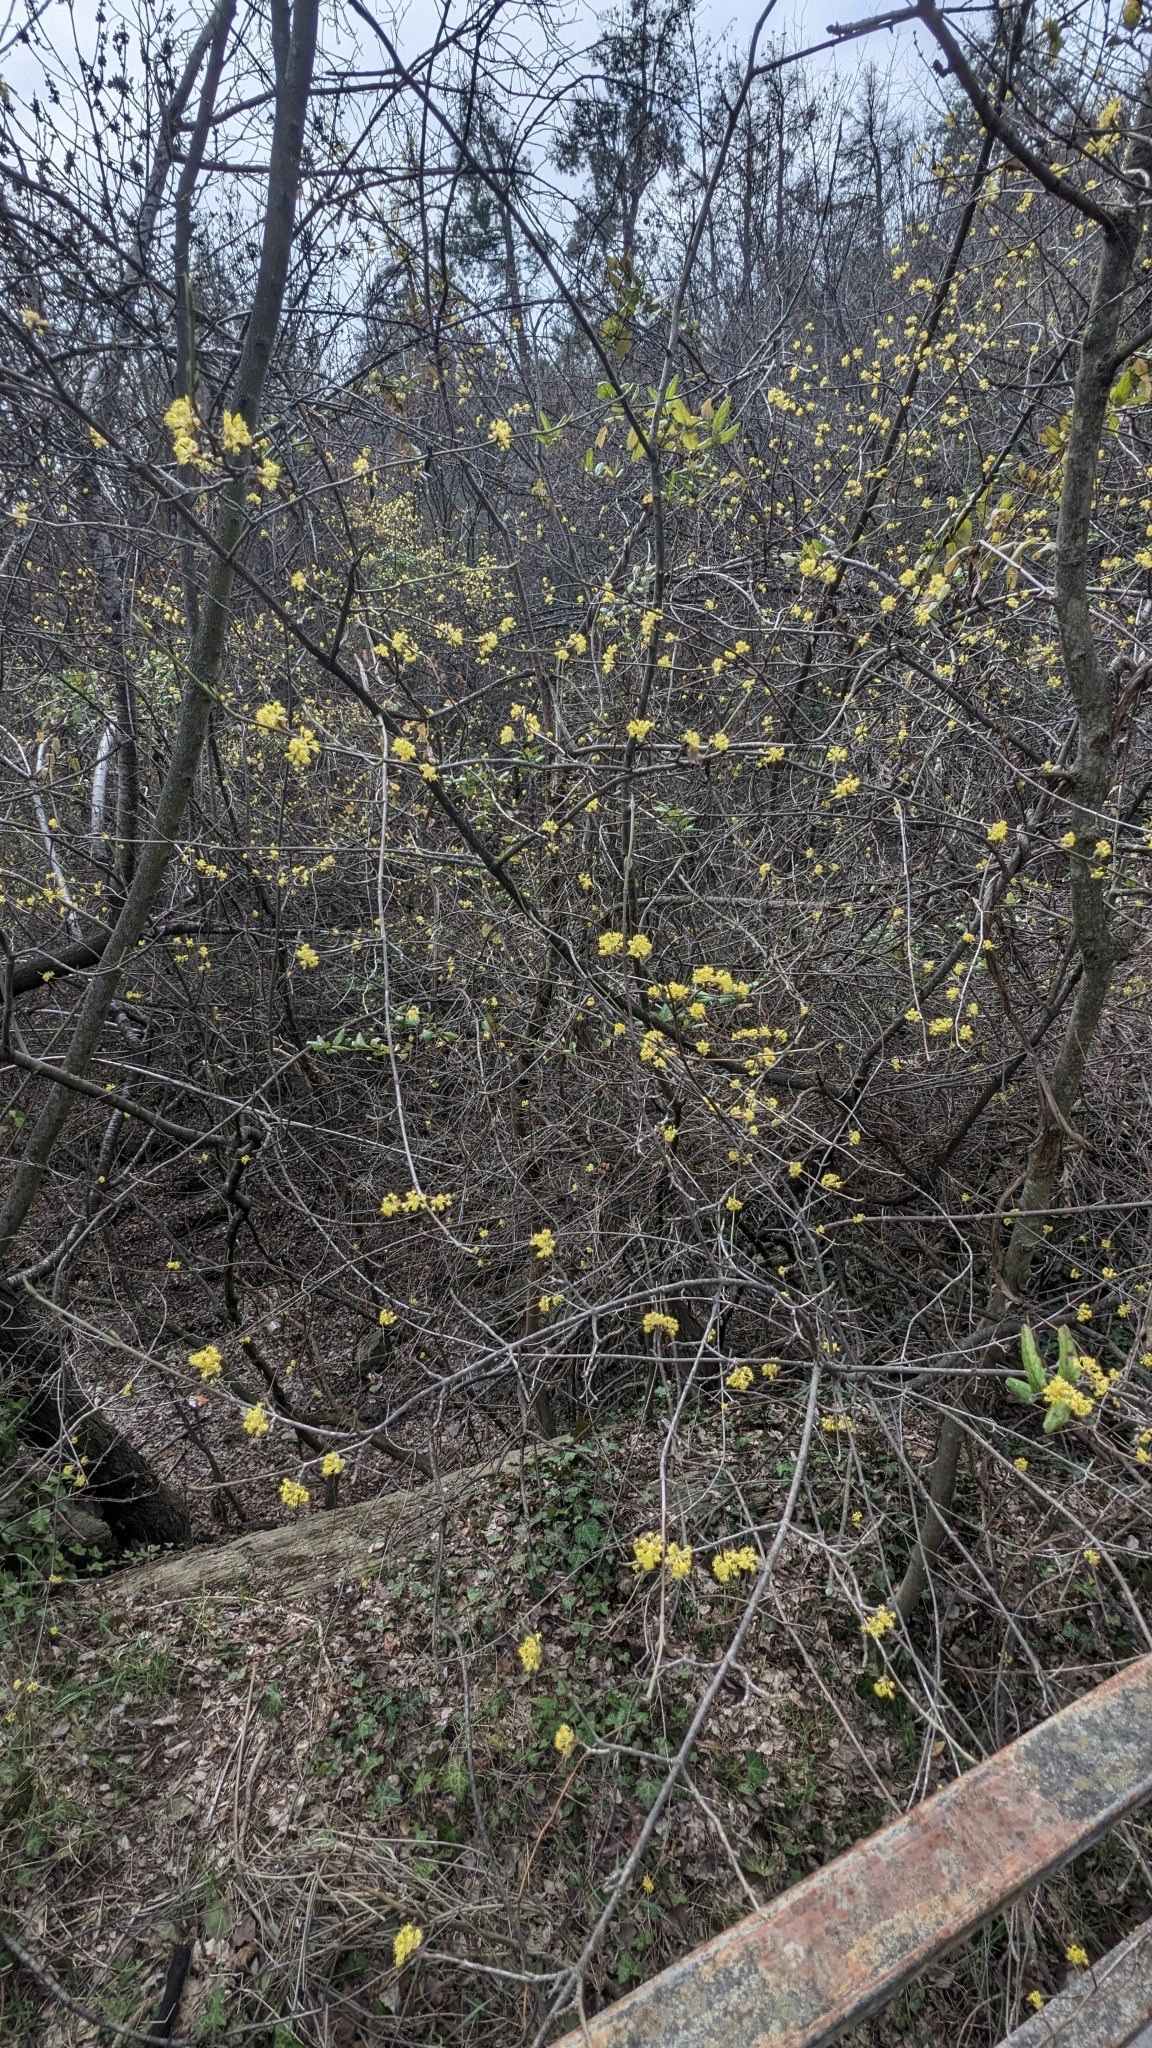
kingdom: Plantae
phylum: Tracheophyta
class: Magnoliopsida
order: Cornales
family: Cornaceae
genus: Cornus
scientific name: Cornus mas
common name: Cornelian-cherry
